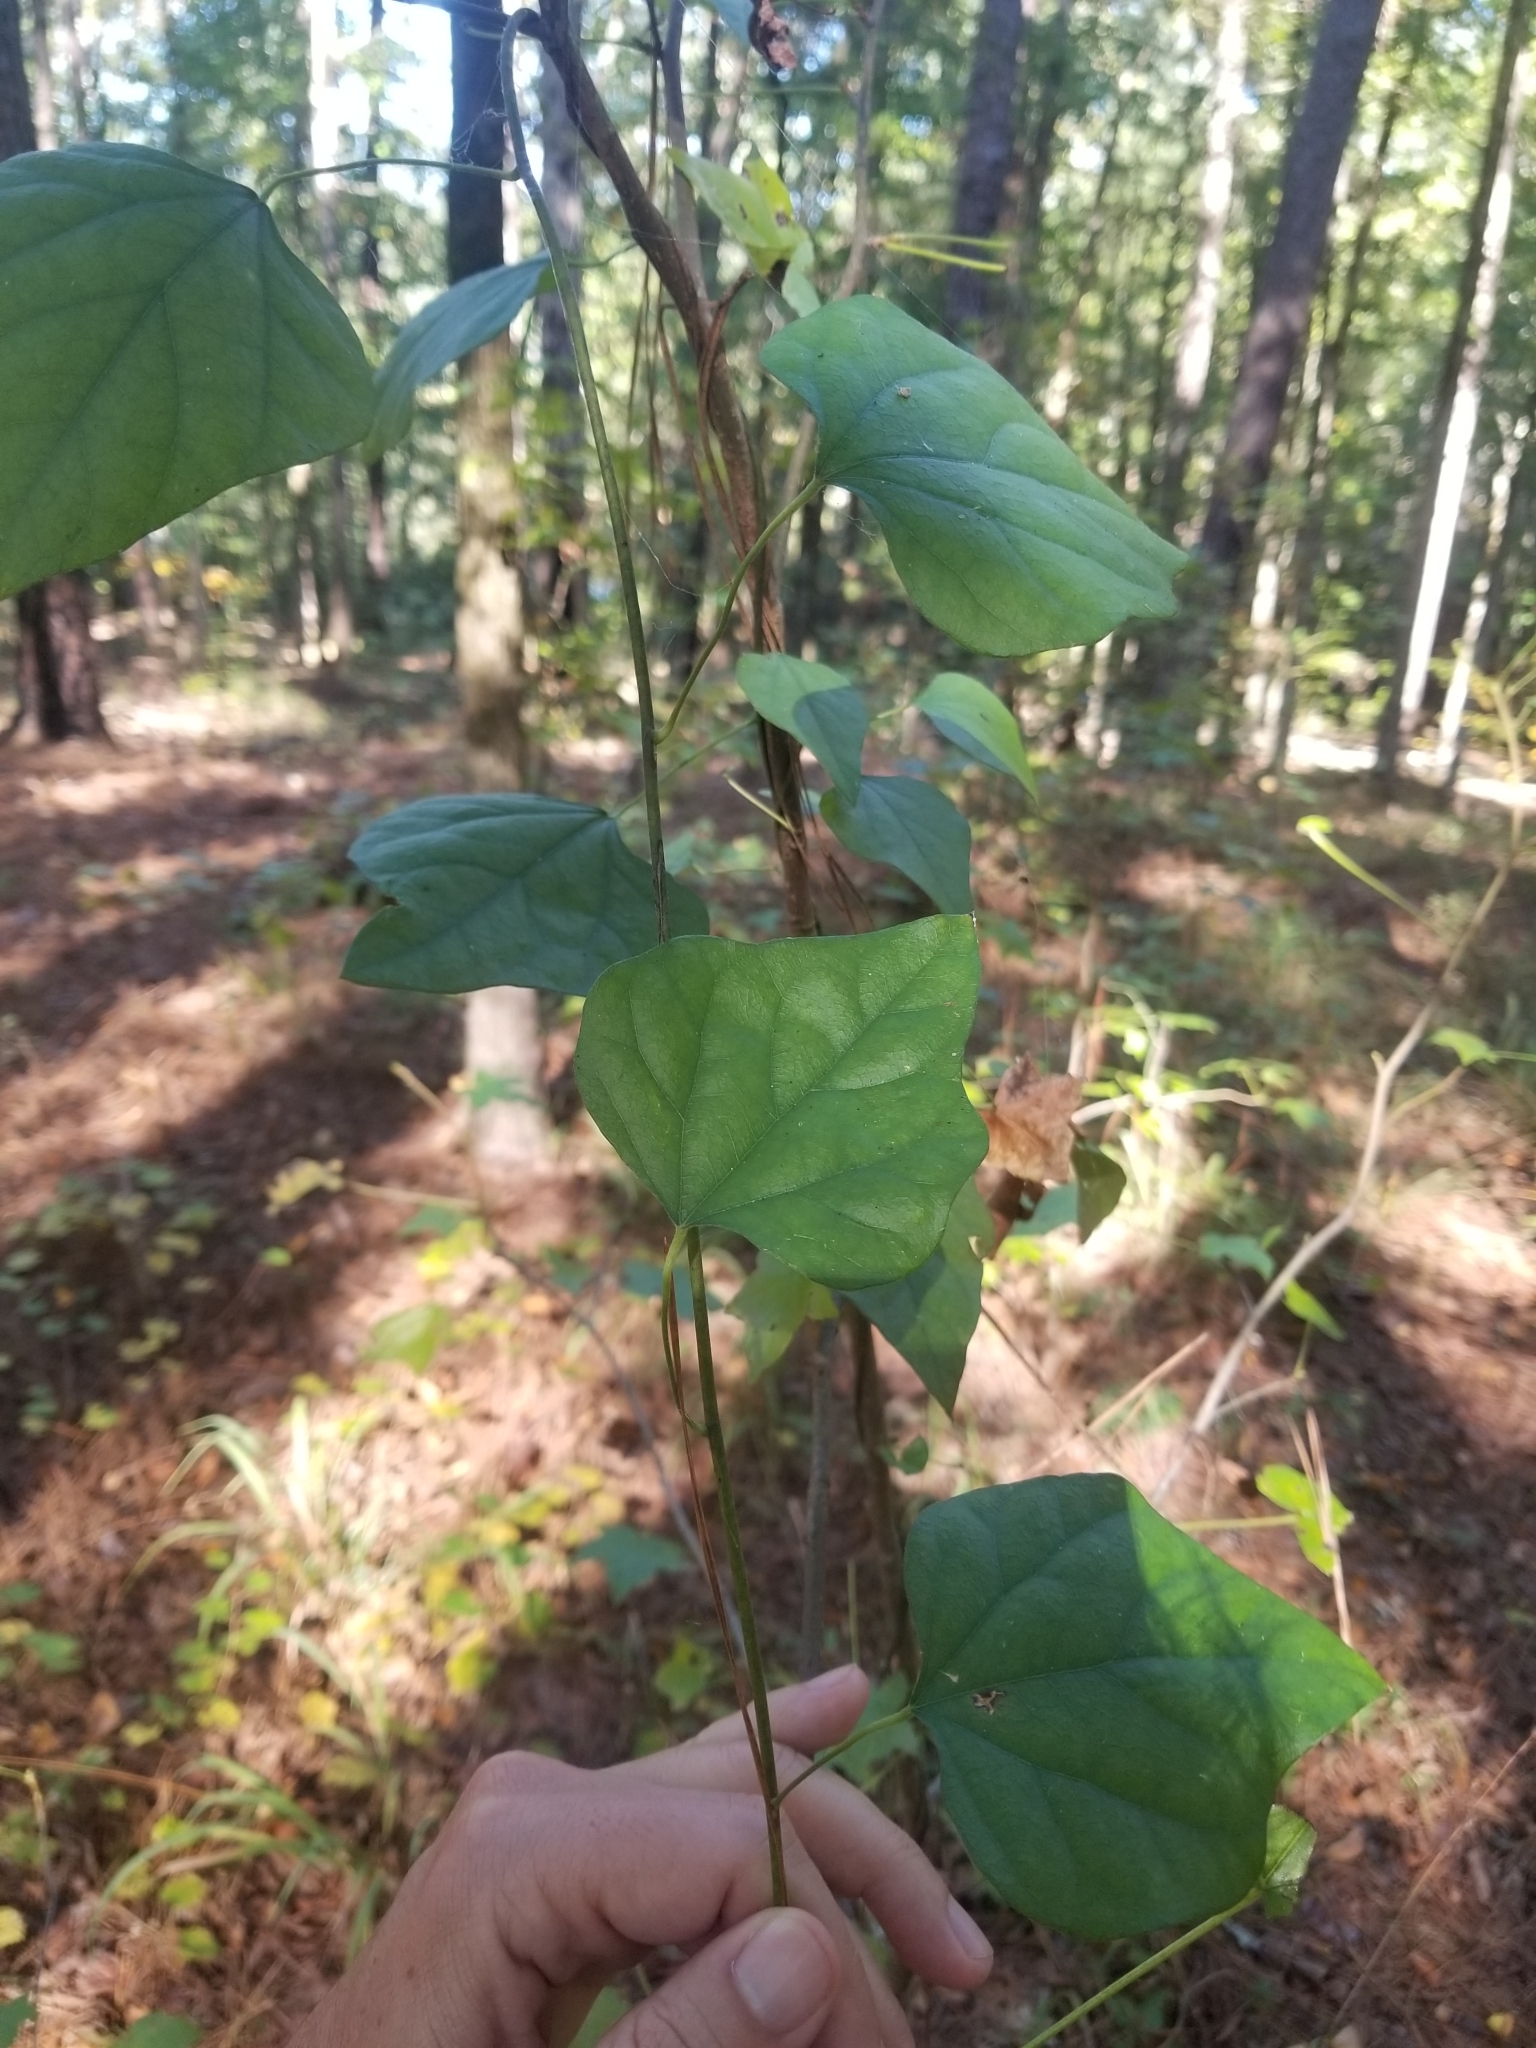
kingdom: Plantae
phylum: Tracheophyta
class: Magnoliopsida
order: Ranunculales
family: Menispermaceae
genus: Cocculus
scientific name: Cocculus carolinus
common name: Carolina moonseed
